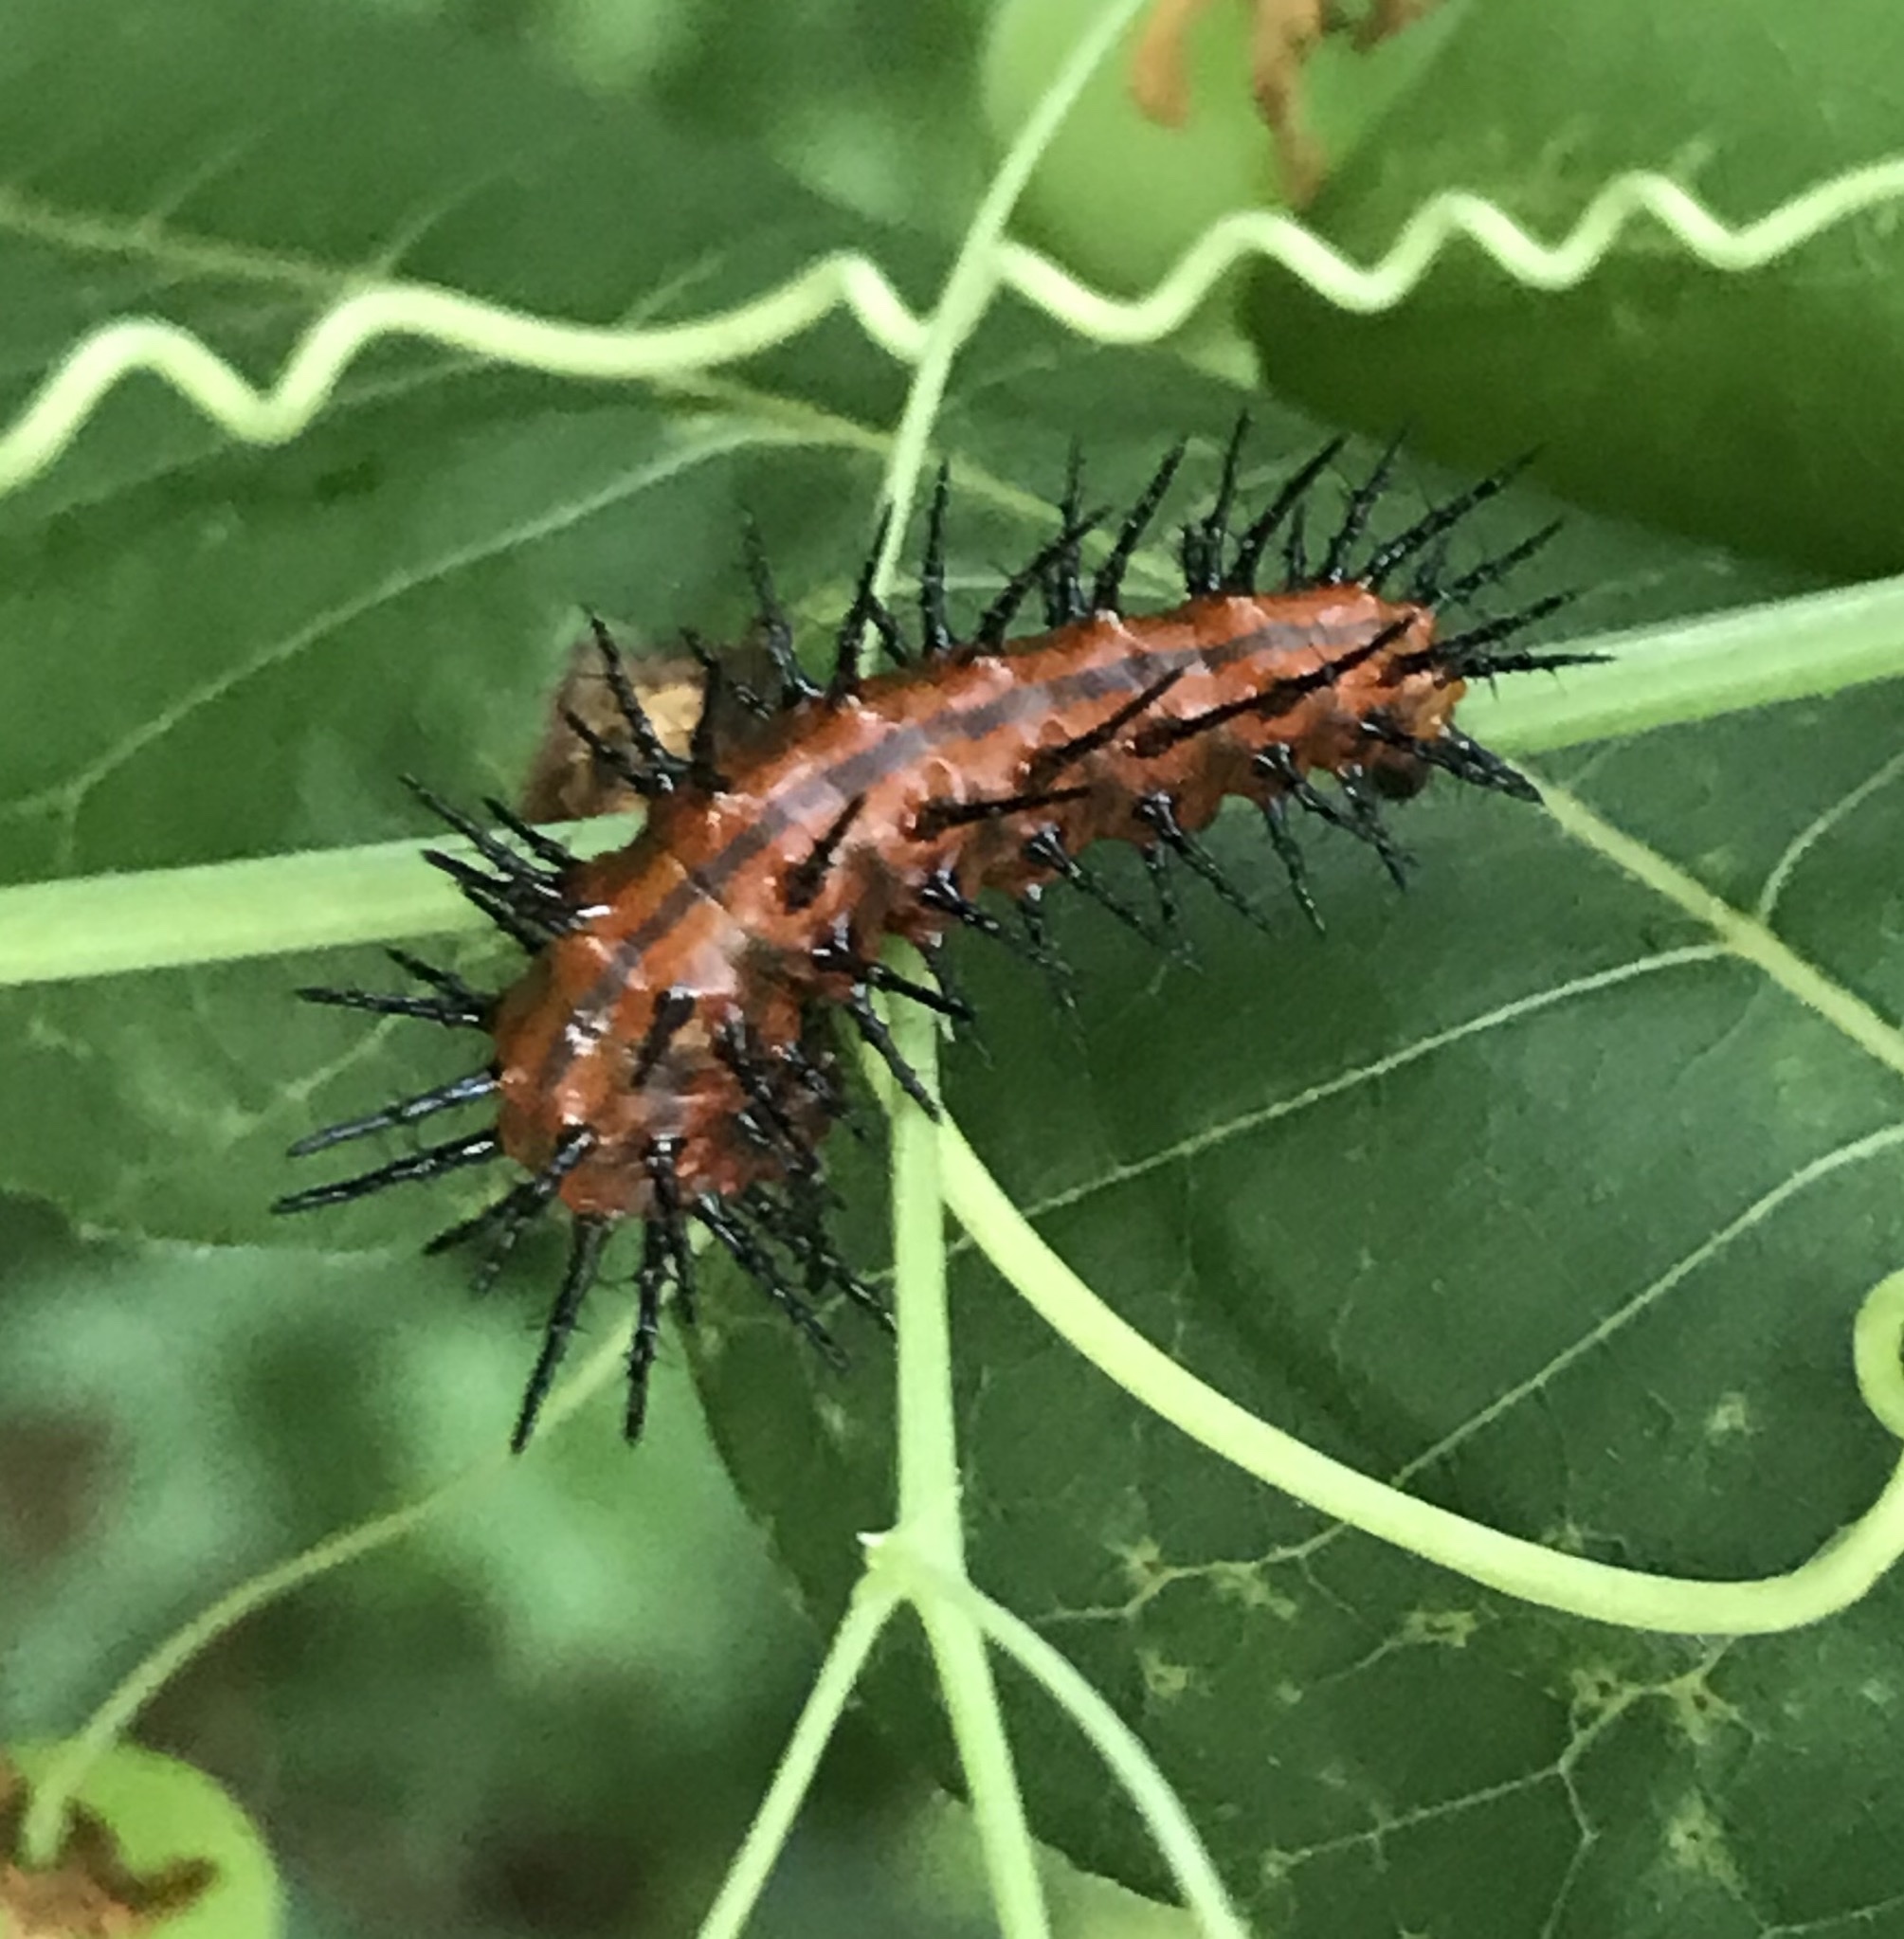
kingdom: Animalia
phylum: Arthropoda
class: Insecta
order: Lepidoptera
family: Nymphalidae
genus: Dione
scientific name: Dione vanillae
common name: Gulf fritillary
